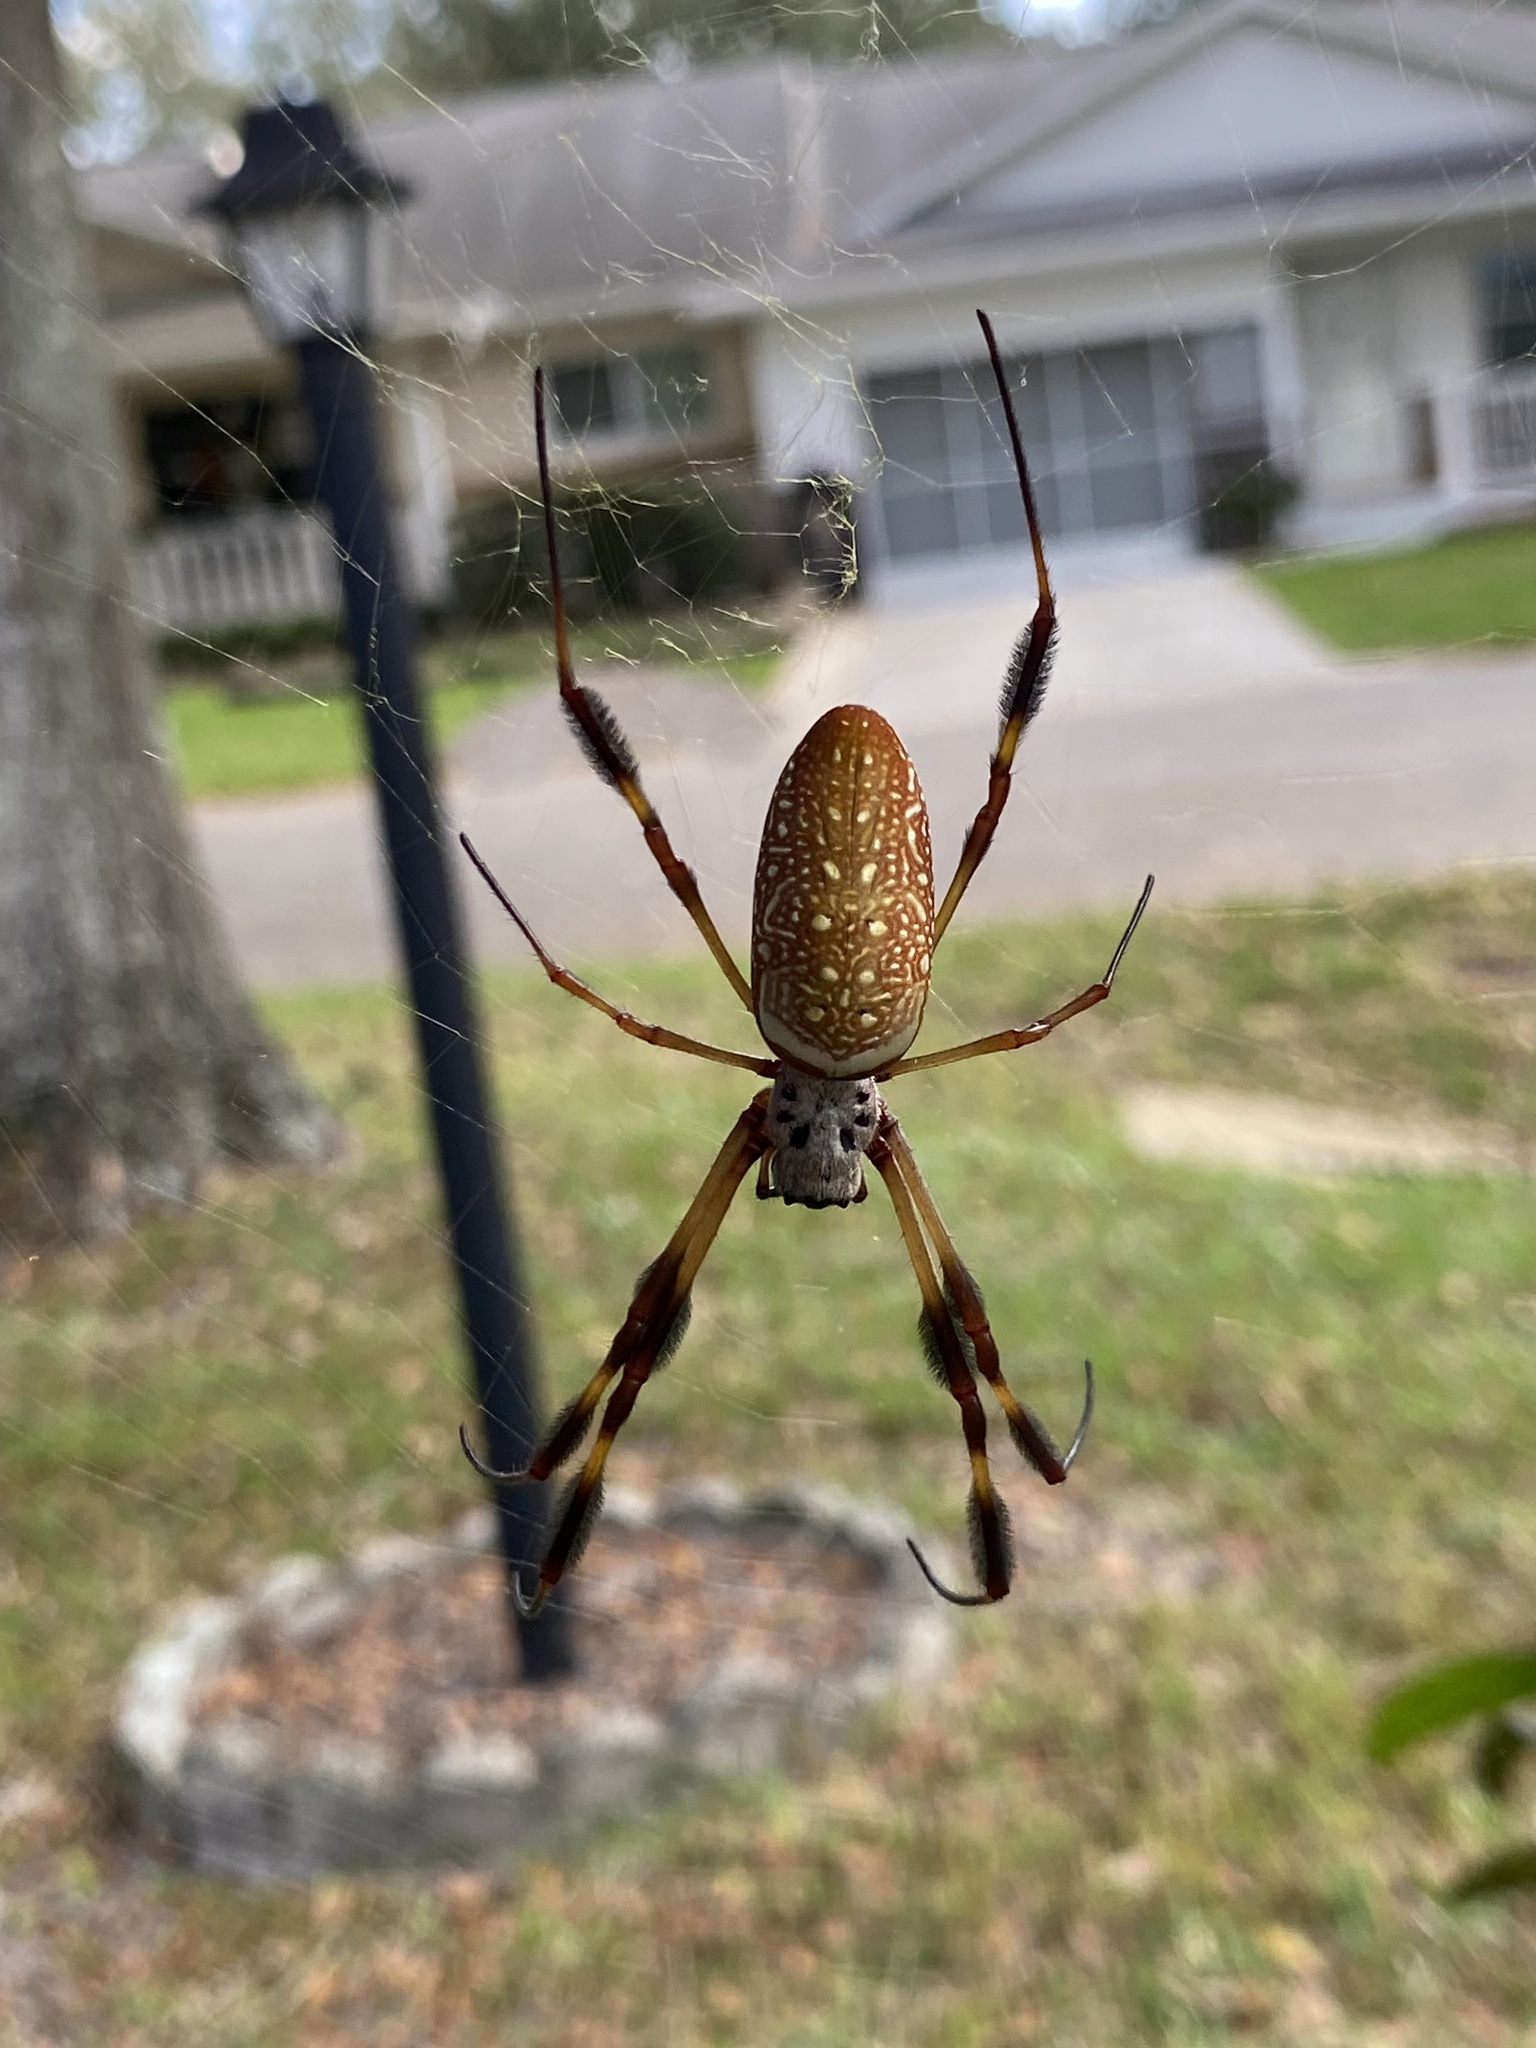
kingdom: Animalia
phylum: Arthropoda
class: Arachnida
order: Araneae
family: Araneidae
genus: Trichonephila
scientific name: Trichonephila clavipes
